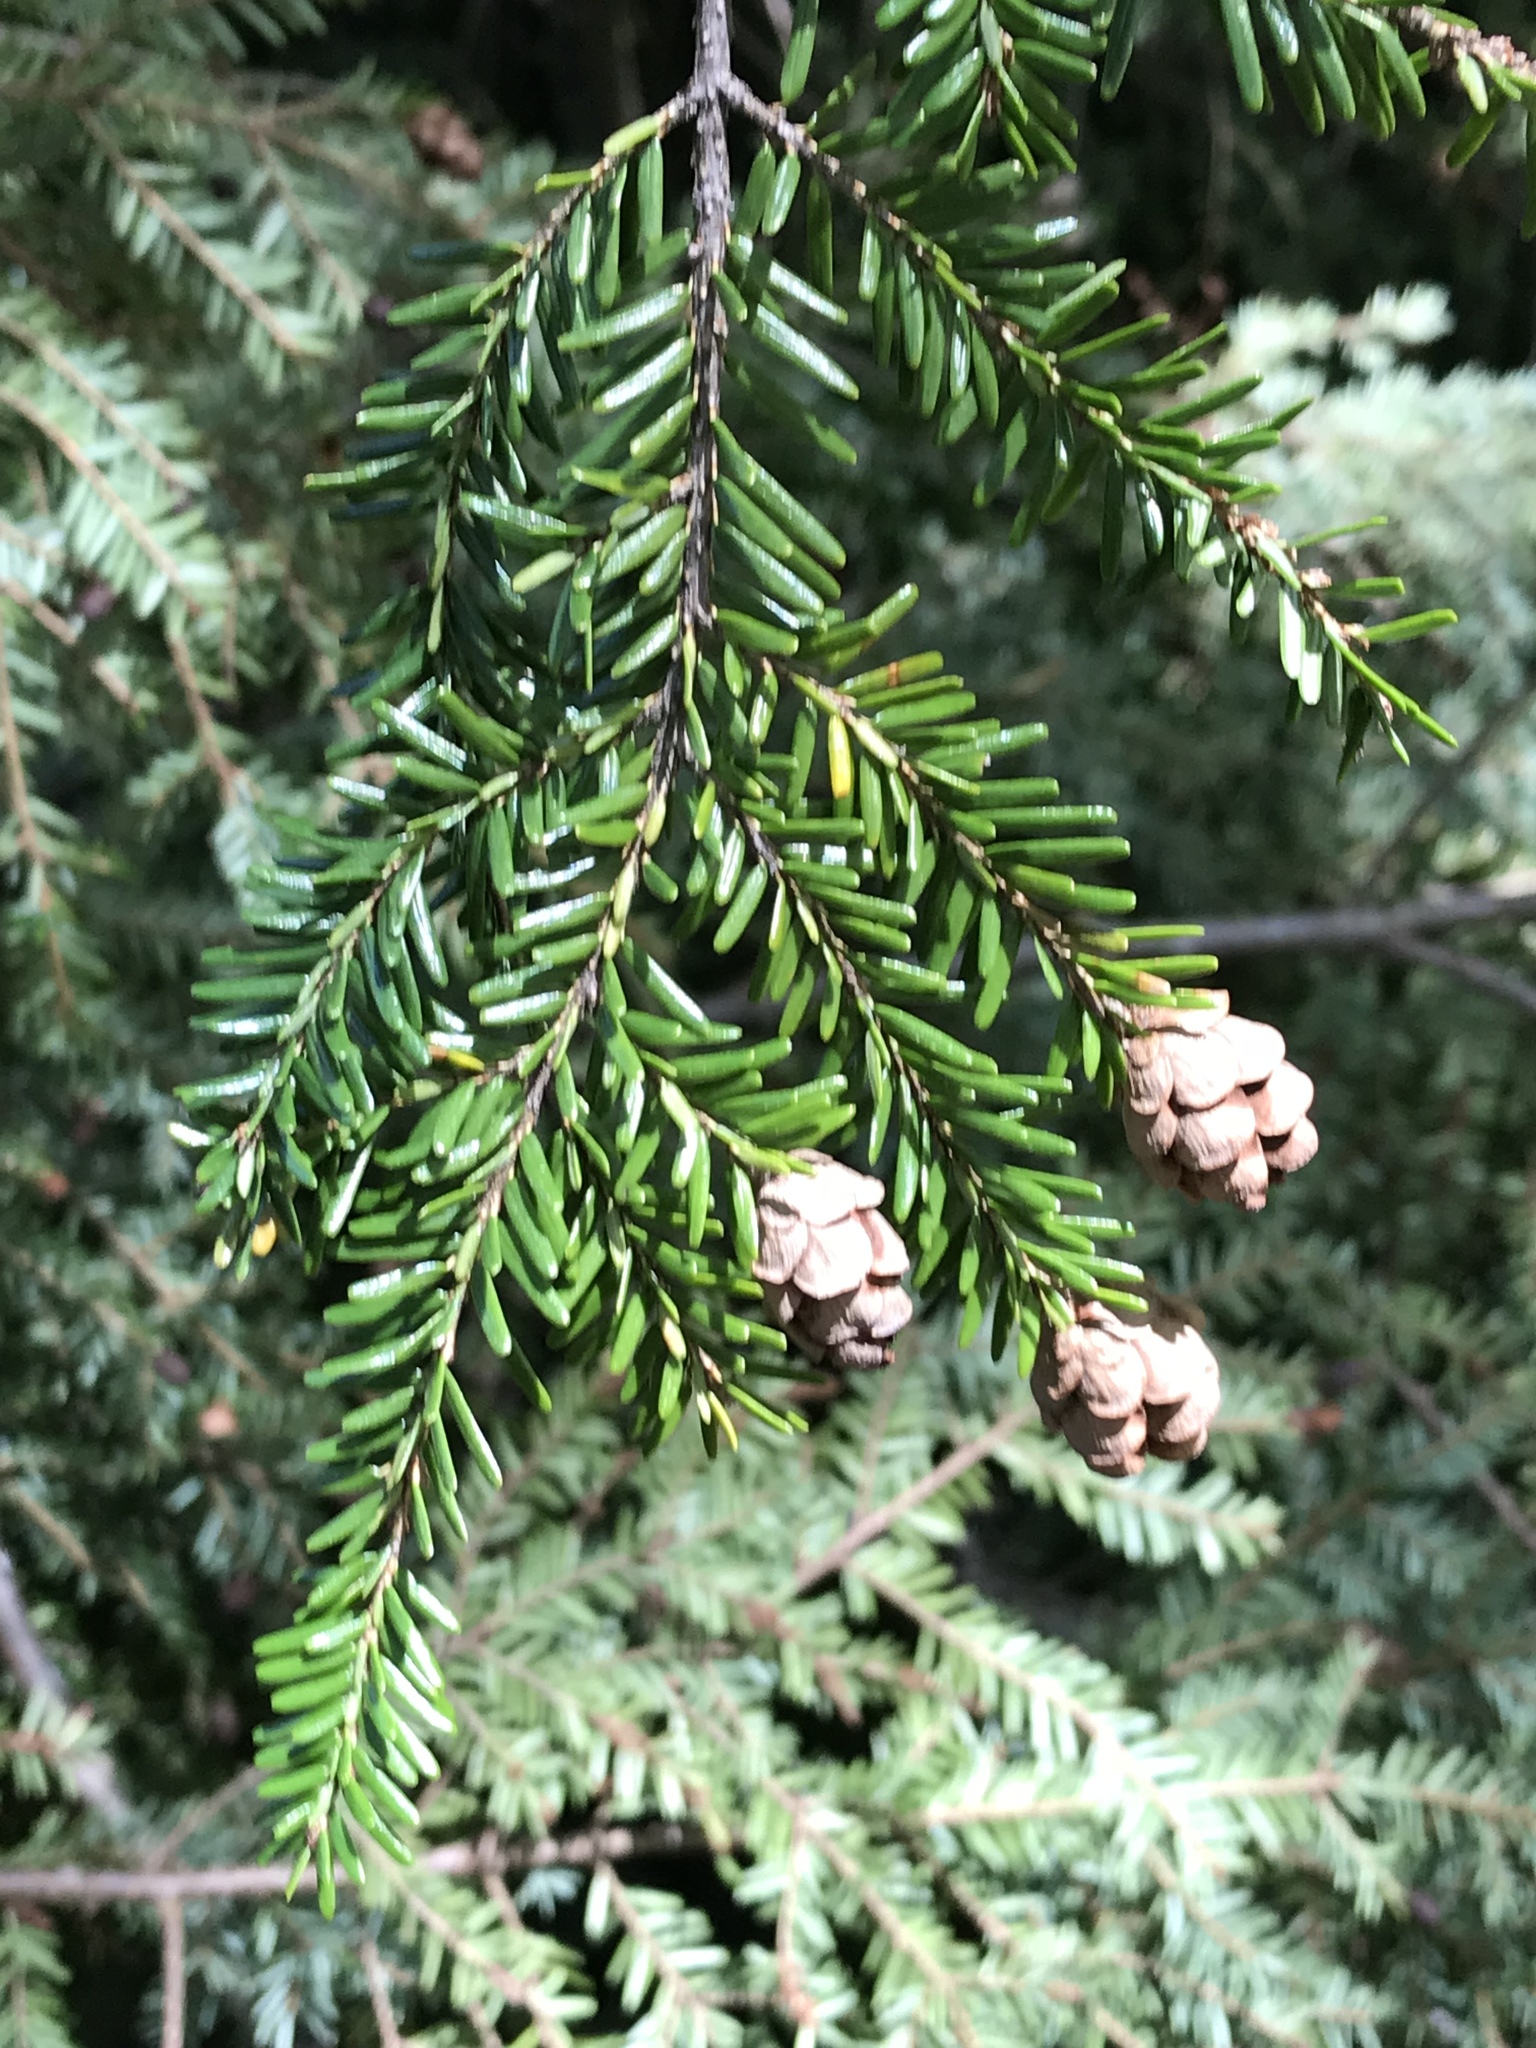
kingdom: Plantae
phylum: Tracheophyta
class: Pinopsida
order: Pinales
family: Pinaceae
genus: Tsuga
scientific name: Tsuga canadensis
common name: Eastern hemlock
